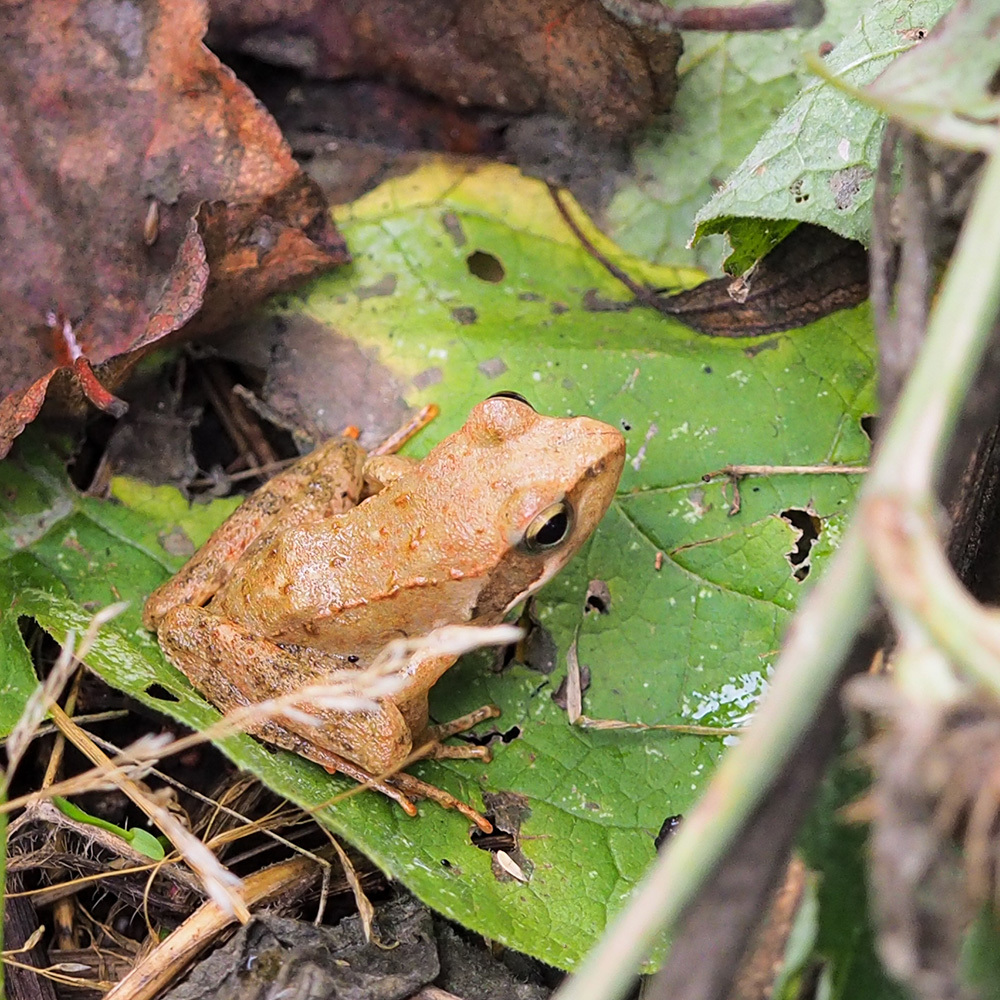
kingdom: Animalia
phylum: Chordata
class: Amphibia
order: Anura
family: Ranidae
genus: Rana
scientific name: Rana italica
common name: Italian stream frog
